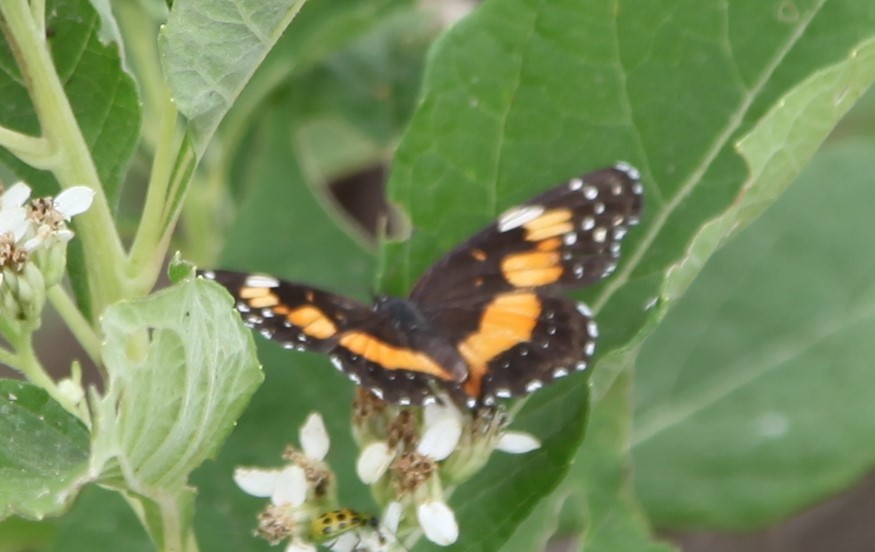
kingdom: Animalia
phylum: Arthropoda
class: Insecta
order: Lepidoptera
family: Nymphalidae
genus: Chlosyne
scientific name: Chlosyne lacinia
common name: Bordered patch
